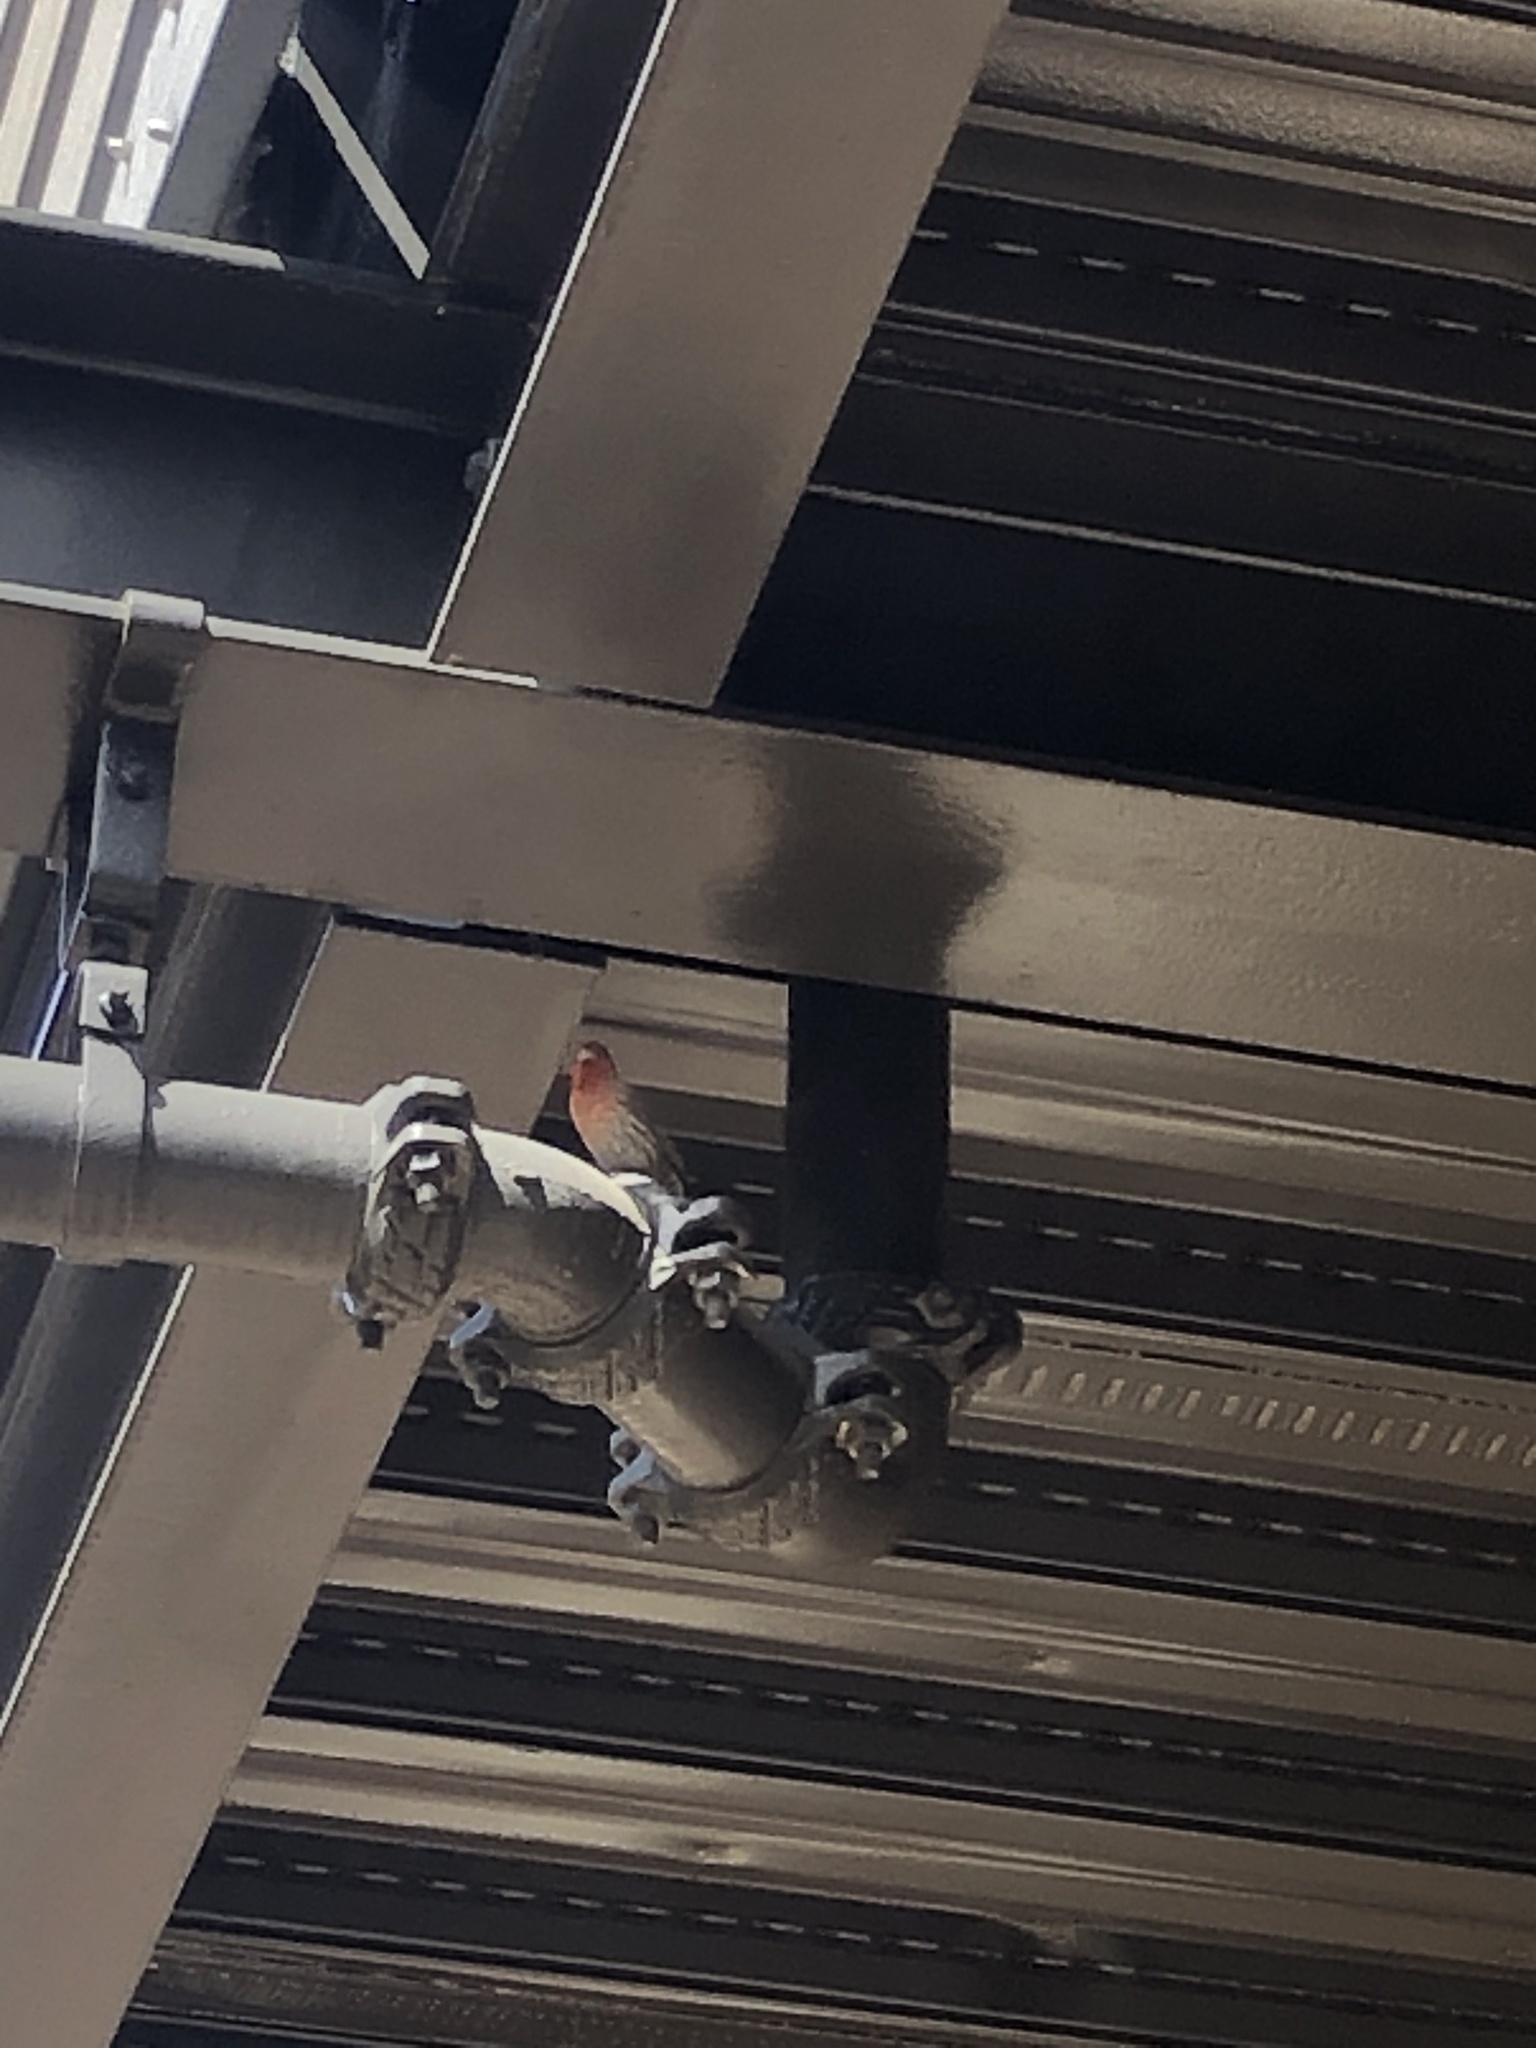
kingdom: Animalia
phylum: Chordata
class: Aves
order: Passeriformes
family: Fringillidae
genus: Haemorhous
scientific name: Haemorhous mexicanus
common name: House finch
